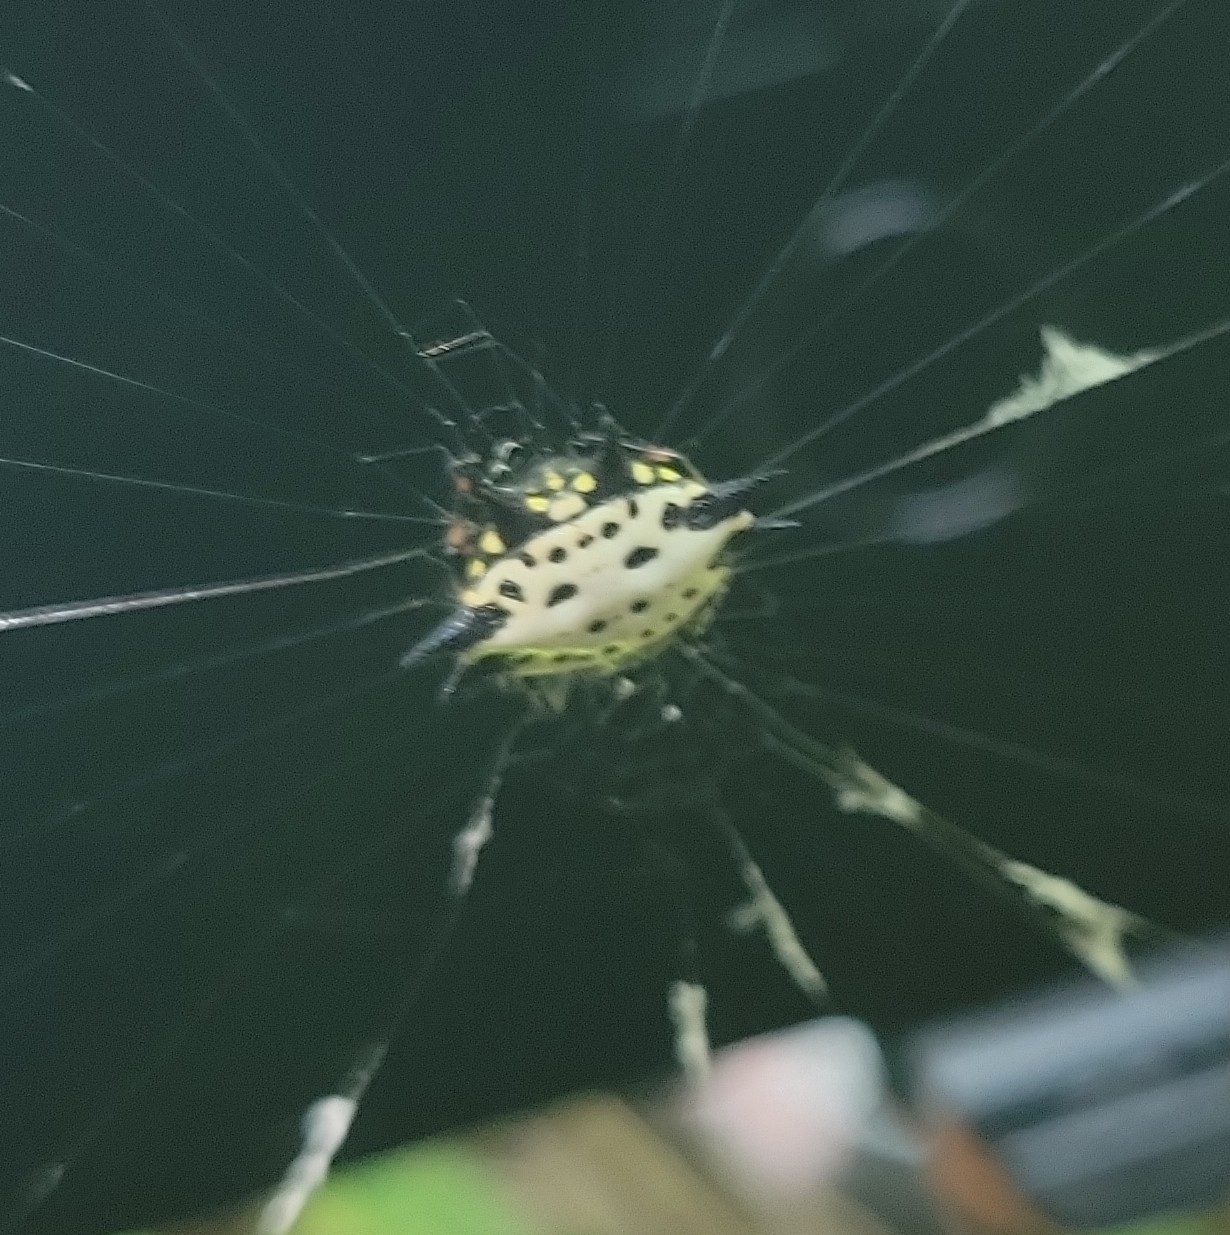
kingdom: Animalia
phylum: Arthropoda
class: Arachnida
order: Araneae
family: Araneidae
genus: Gasteracantha
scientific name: Gasteracantha cancriformis
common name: Orb weavers
